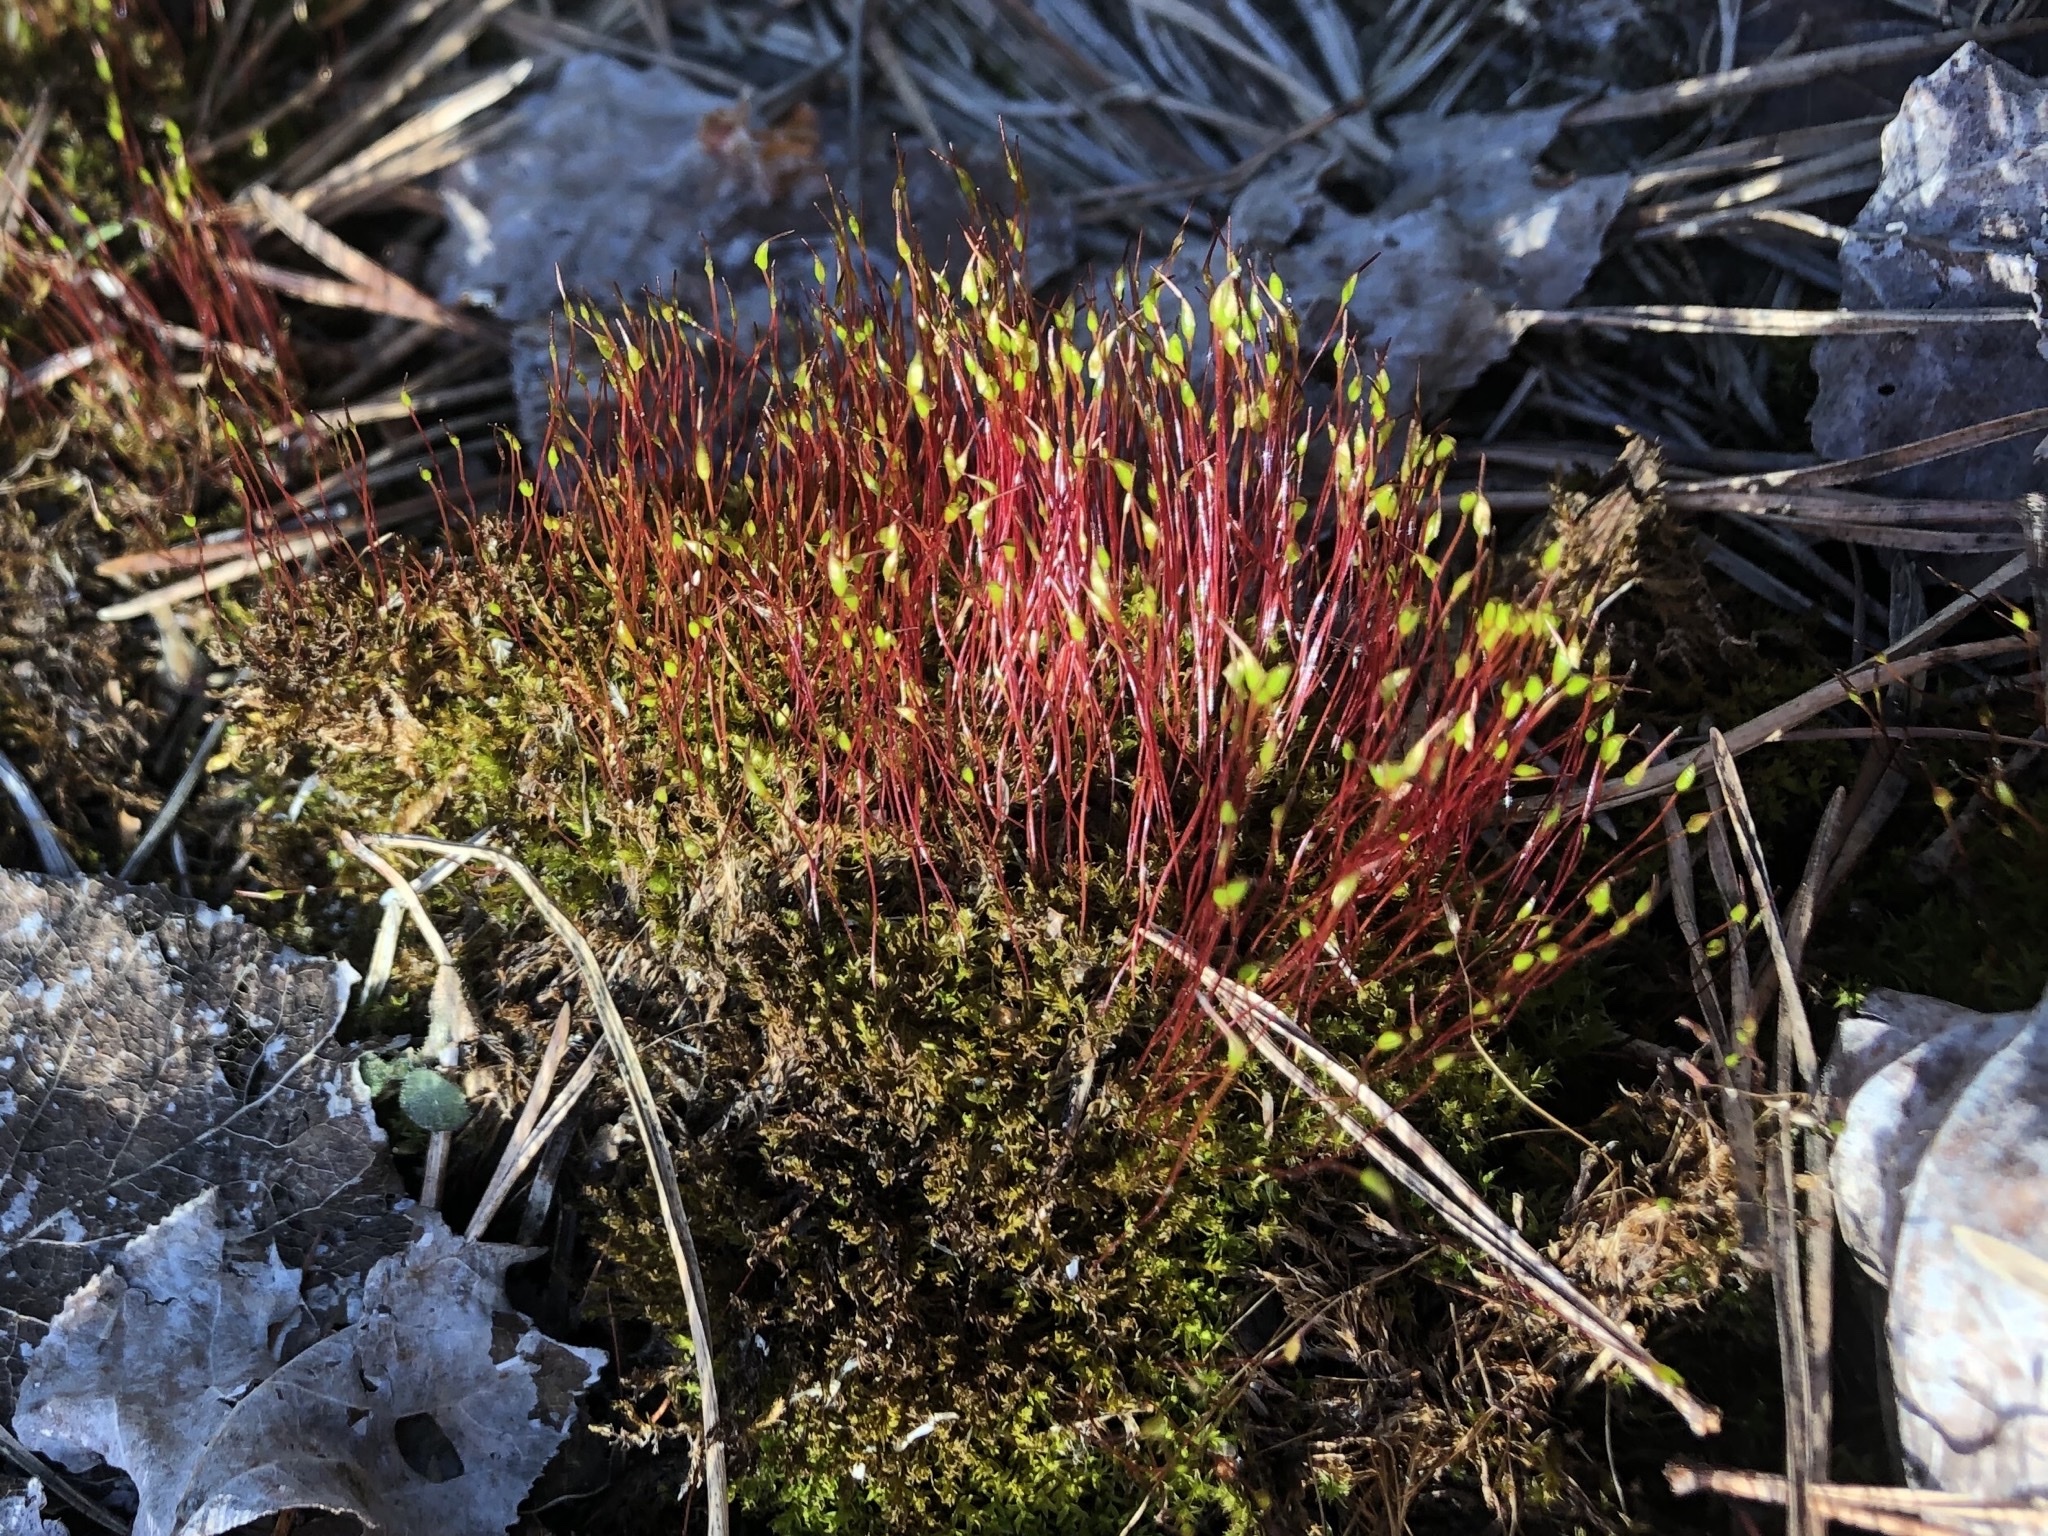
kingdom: Plantae
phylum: Bryophyta
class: Bryopsida
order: Dicranales
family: Ditrichaceae
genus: Ceratodon
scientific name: Ceratodon purpureus
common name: Redshank
